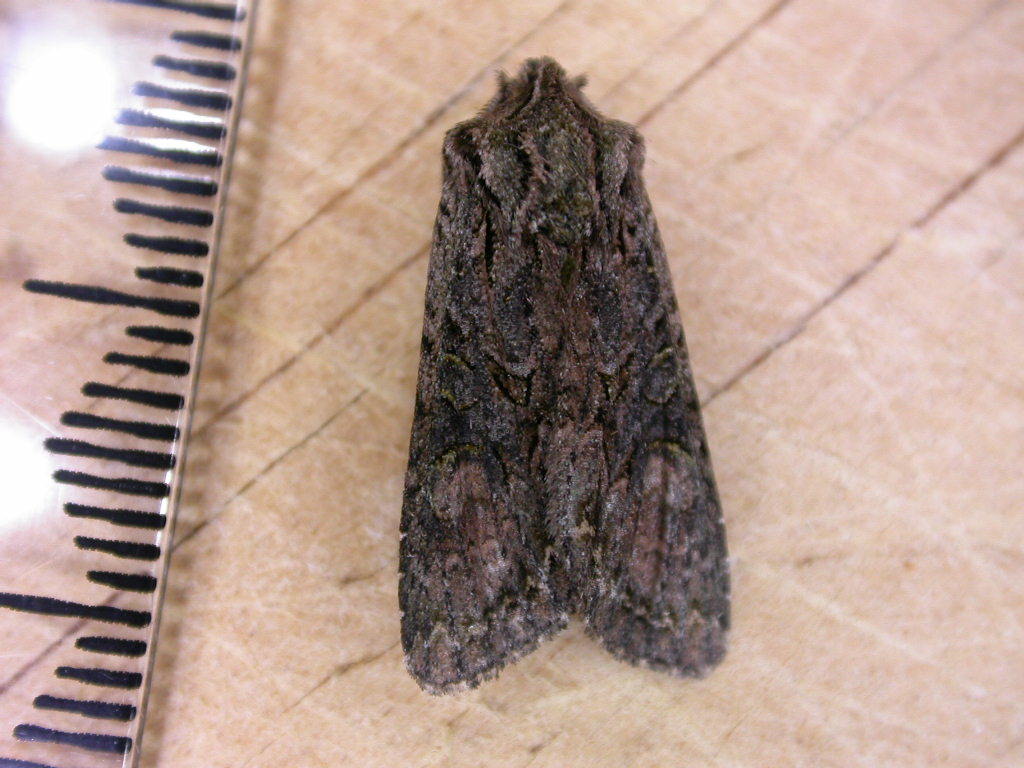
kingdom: Animalia
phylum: Arthropoda
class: Insecta
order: Lepidoptera
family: Noctuidae
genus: Ichneutica
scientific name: Ichneutica mutans
